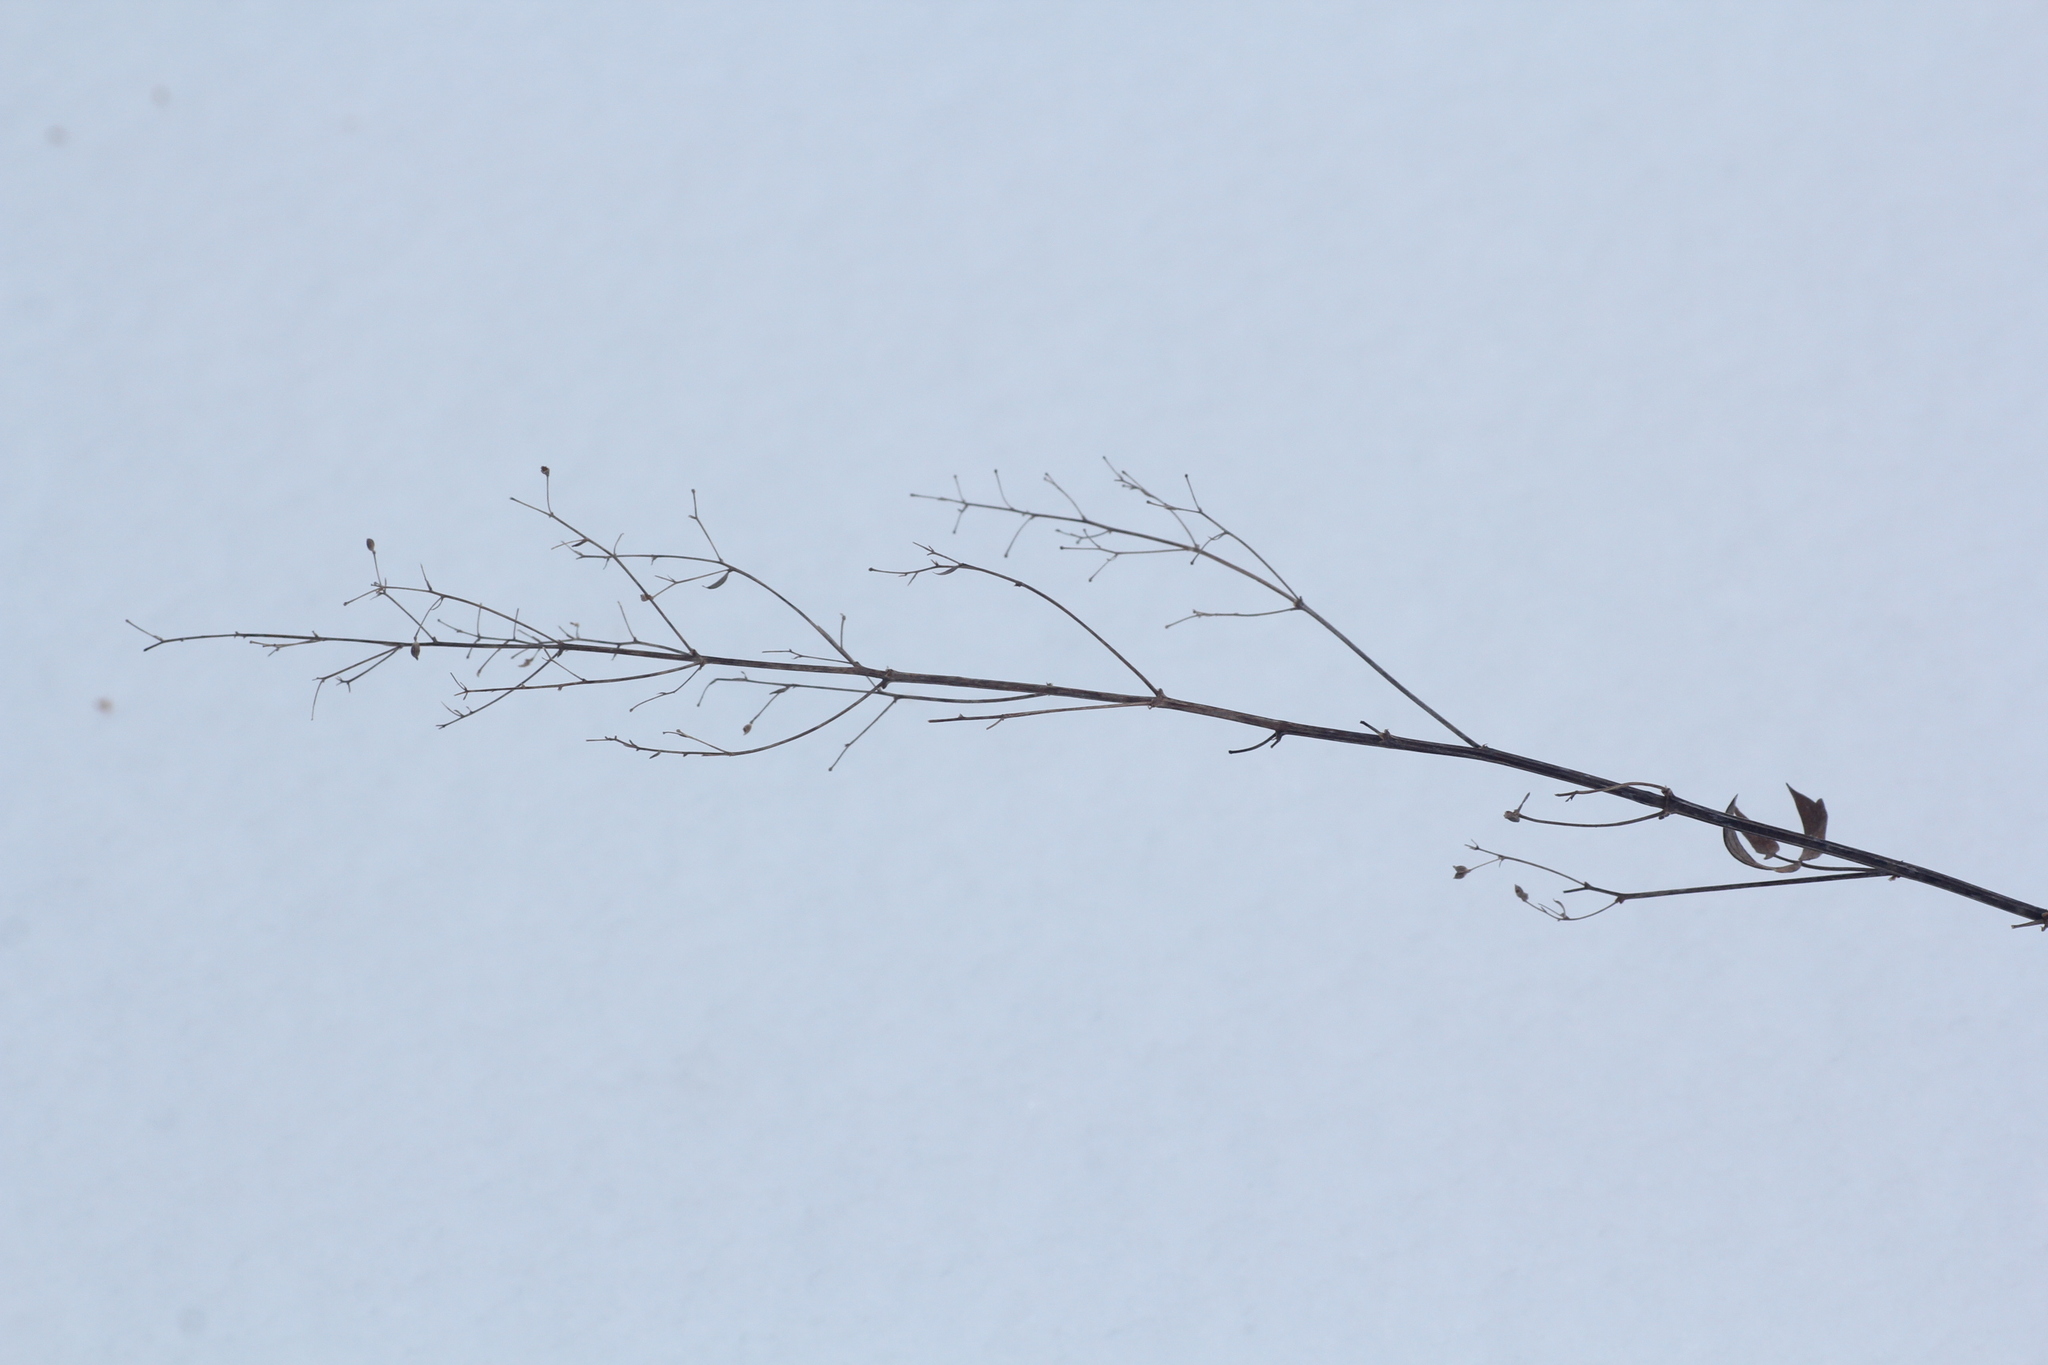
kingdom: Plantae
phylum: Tracheophyta
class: Magnoliopsida
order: Ranunculales
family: Ranunculaceae
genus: Thalictrum
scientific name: Thalictrum simplex
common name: Small meadow-rue
